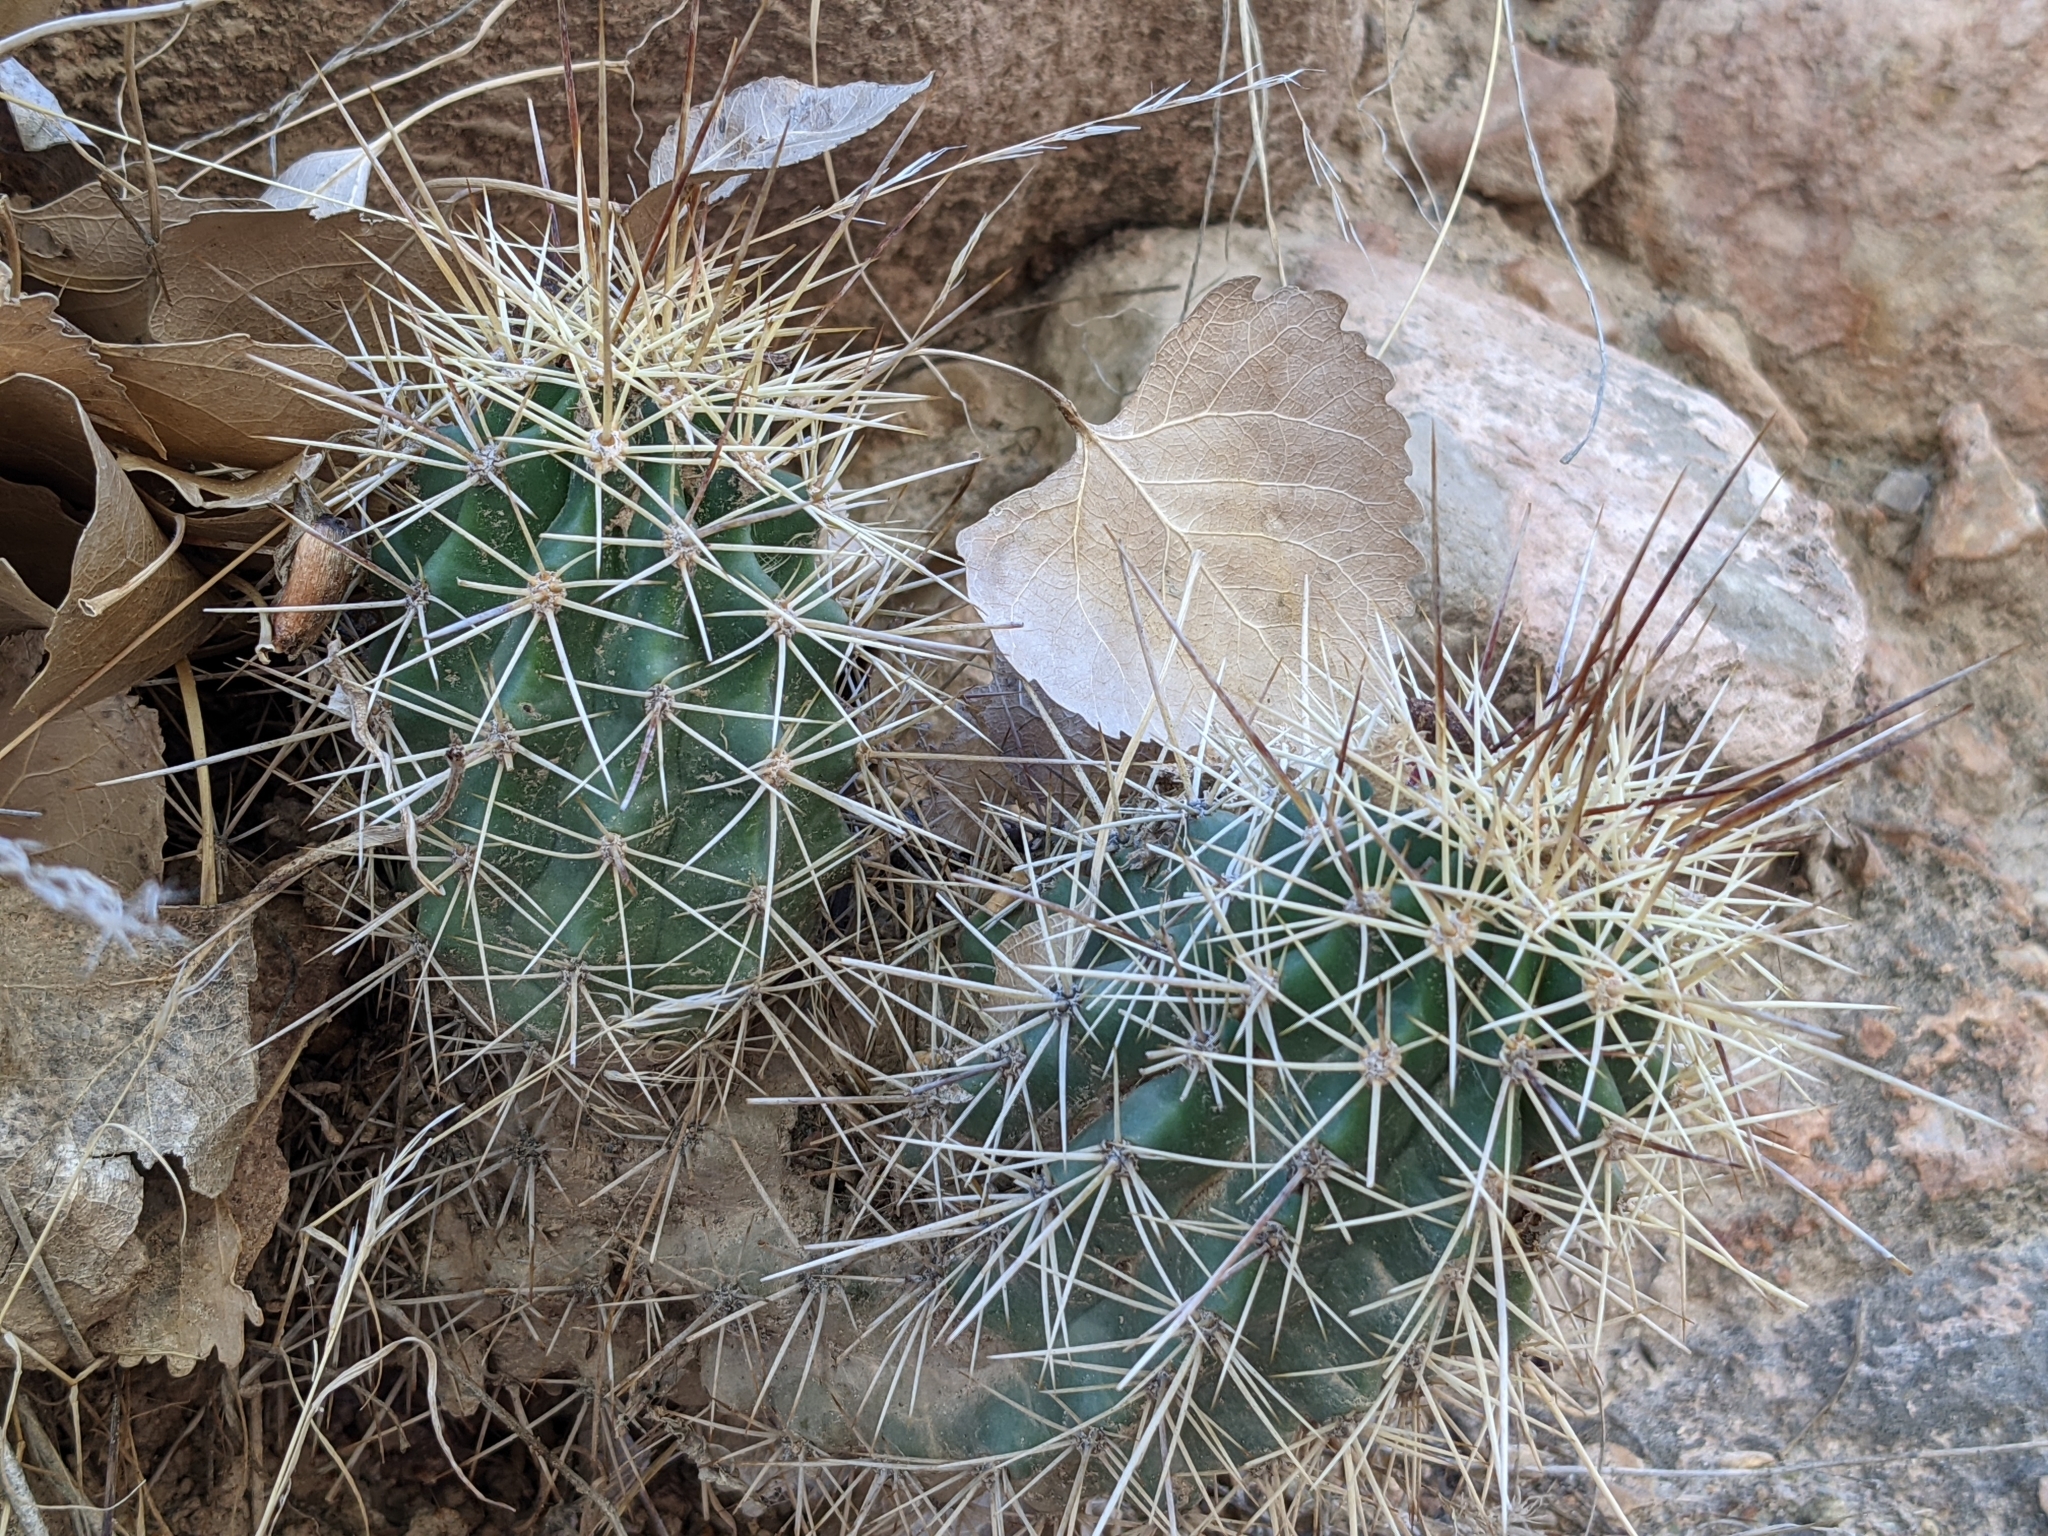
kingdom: Plantae
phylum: Tracheophyta
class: Magnoliopsida
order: Caryophyllales
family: Cactaceae
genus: Echinocereus
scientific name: Echinocereus bakeri
